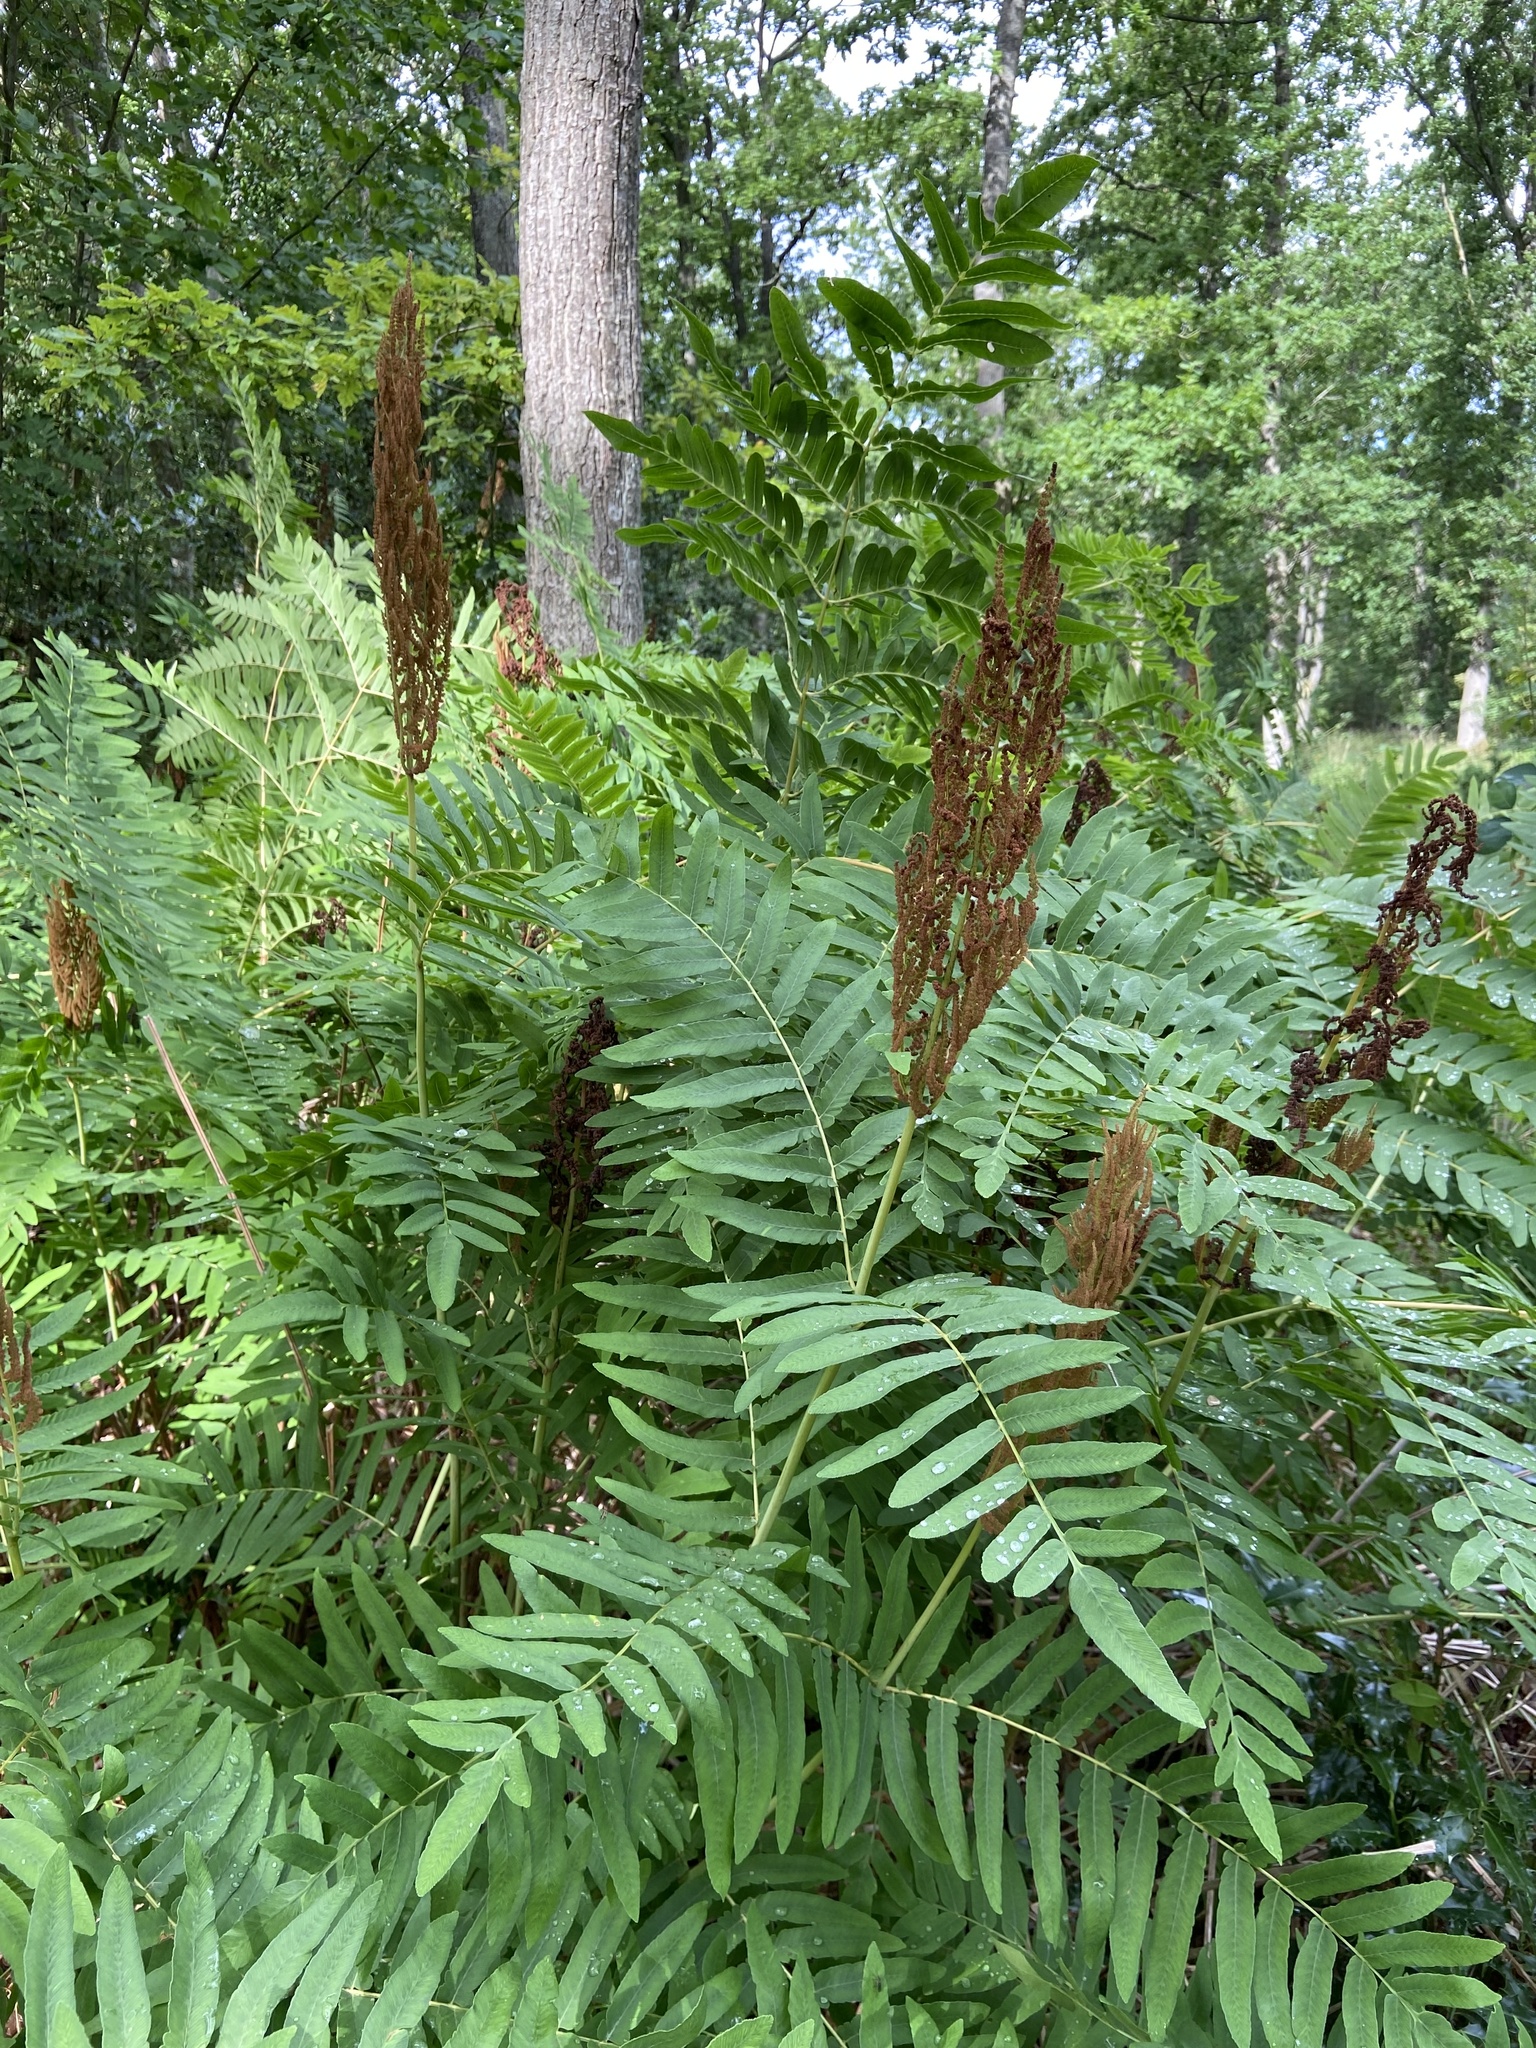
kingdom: Plantae
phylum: Tracheophyta
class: Polypodiopsida
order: Osmundales
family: Osmundaceae
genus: Osmunda
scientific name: Osmunda regalis
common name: Royal fern
